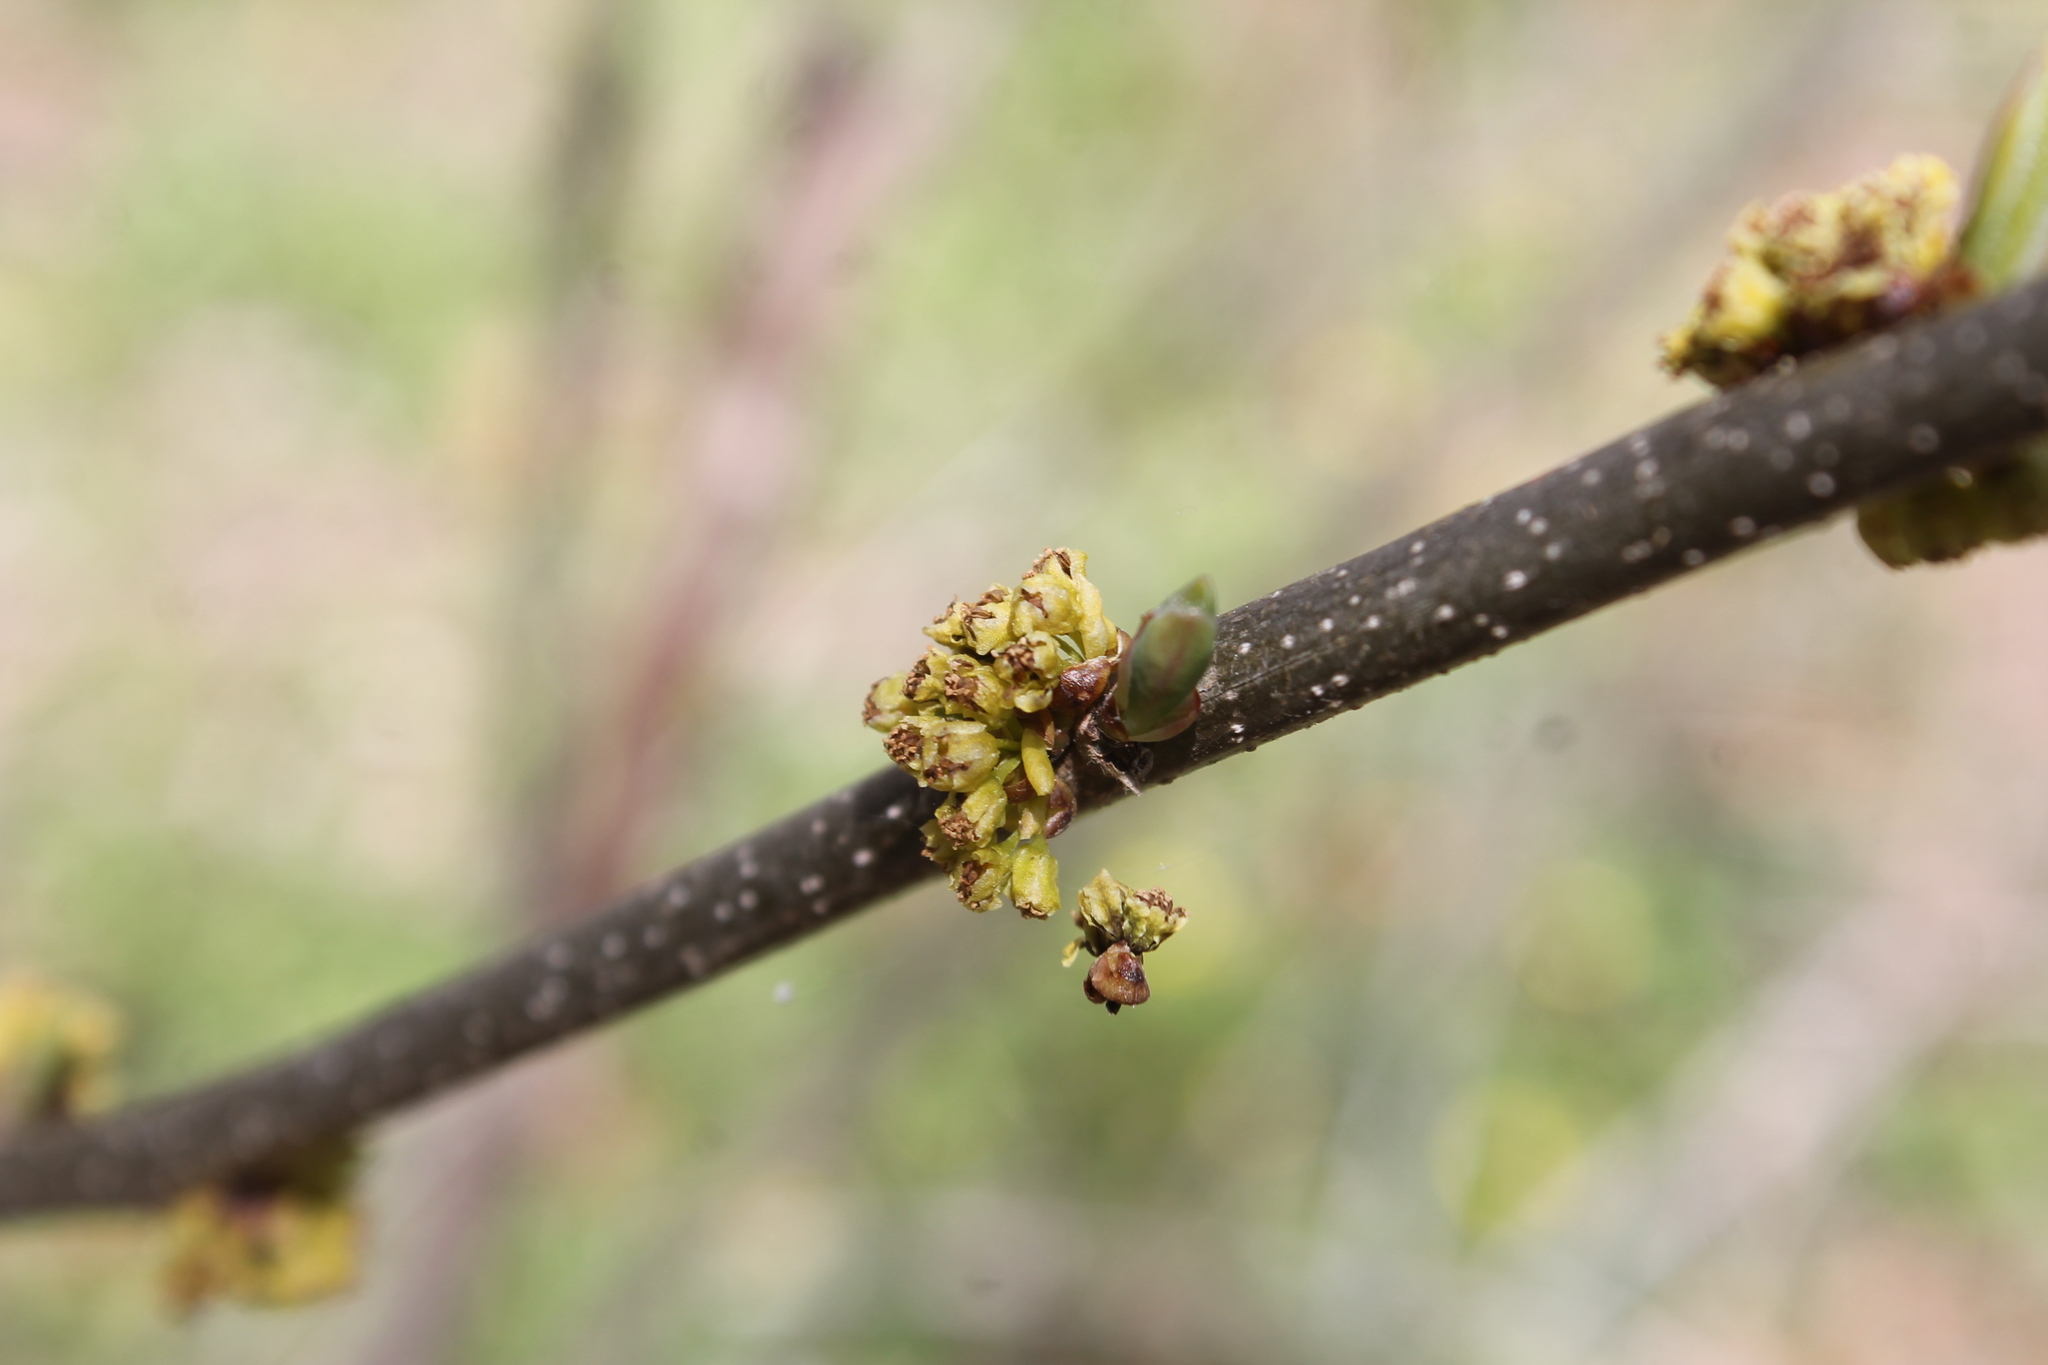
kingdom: Plantae
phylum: Tracheophyta
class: Magnoliopsida
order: Laurales
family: Lauraceae
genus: Lindera
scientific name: Lindera benzoin
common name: Spicebush
